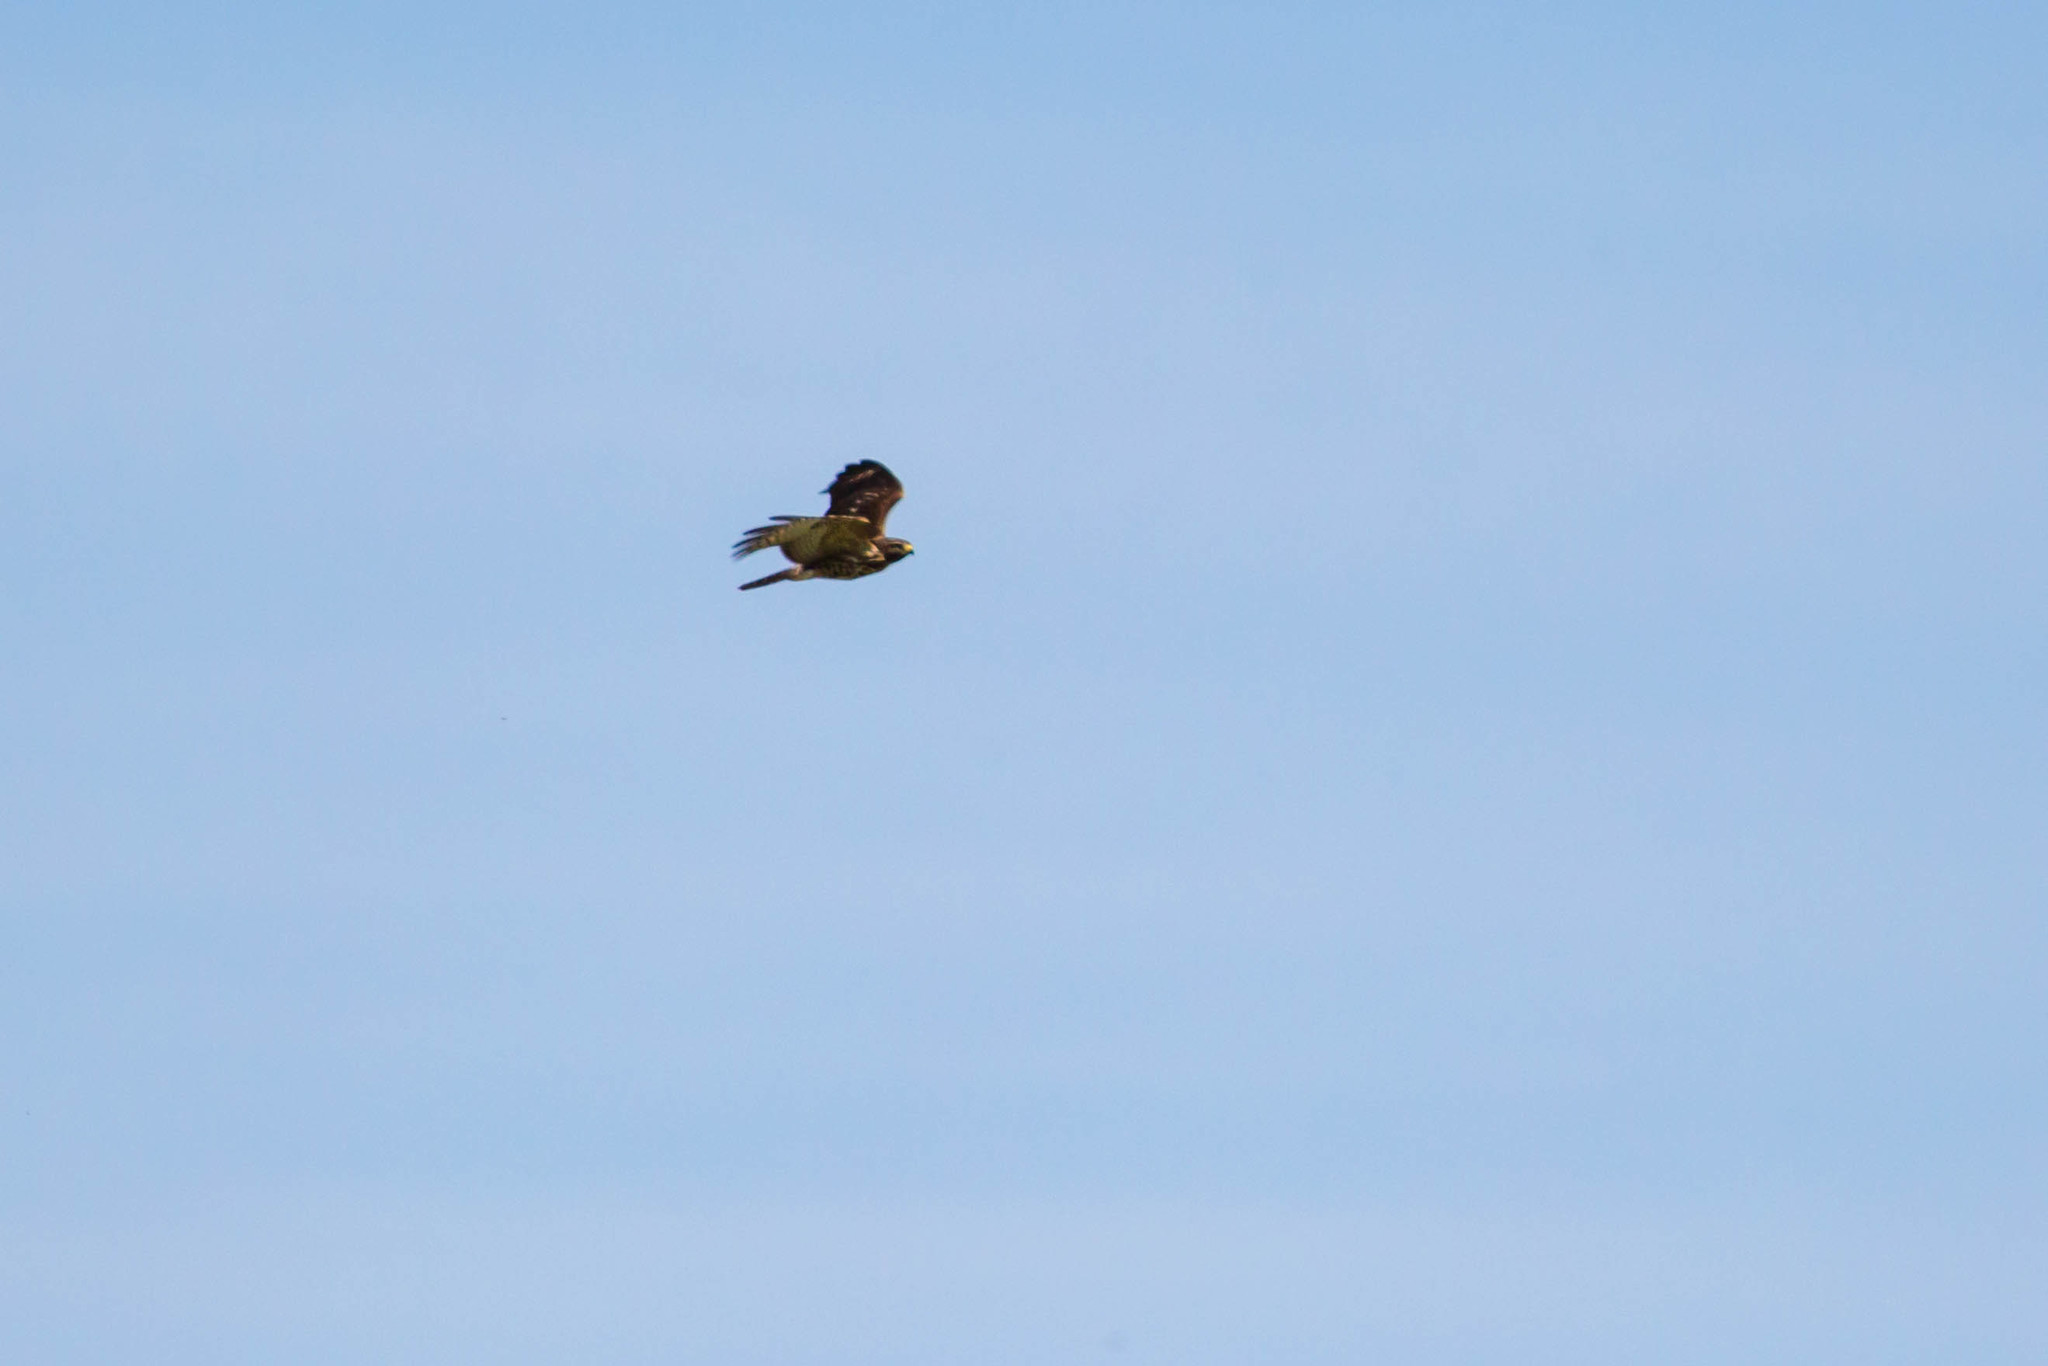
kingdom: Animalia
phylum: Chordata
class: Aves
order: Accipitriformes
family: Accipitridae
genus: Buteo
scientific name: Buteo platypterus
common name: Broad-winged hawk
